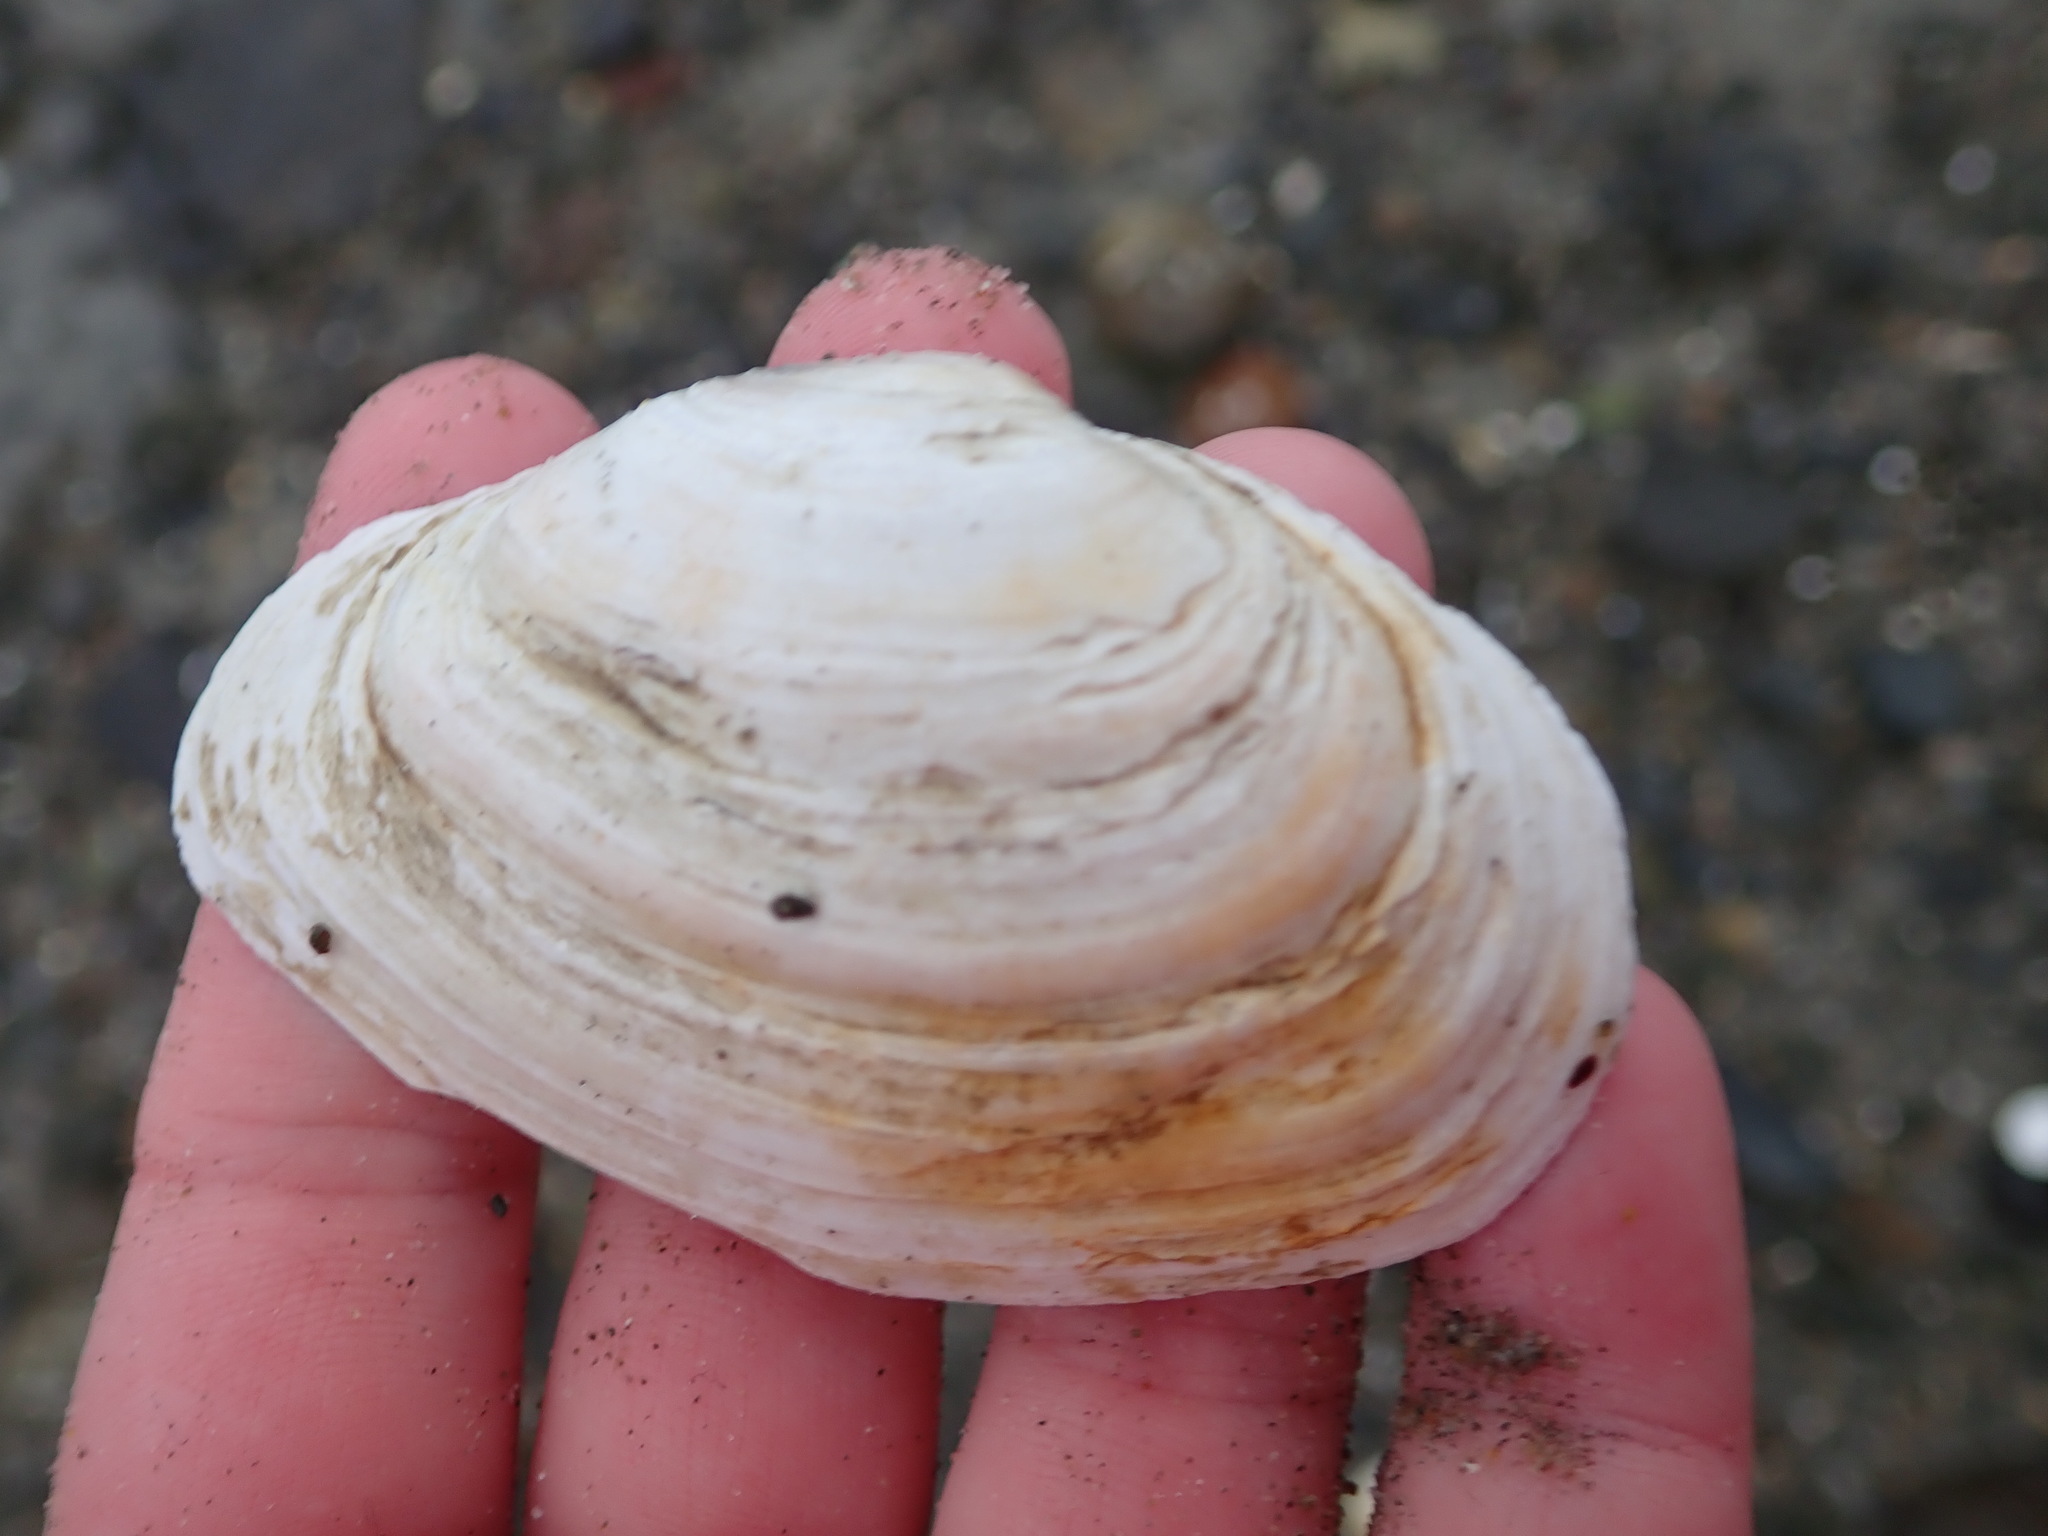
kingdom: Animalia
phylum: Mollusca
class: Bivalvia
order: Myida
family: Myidae
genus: Mya
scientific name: Mya arenaria
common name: Soft-shelled clam
